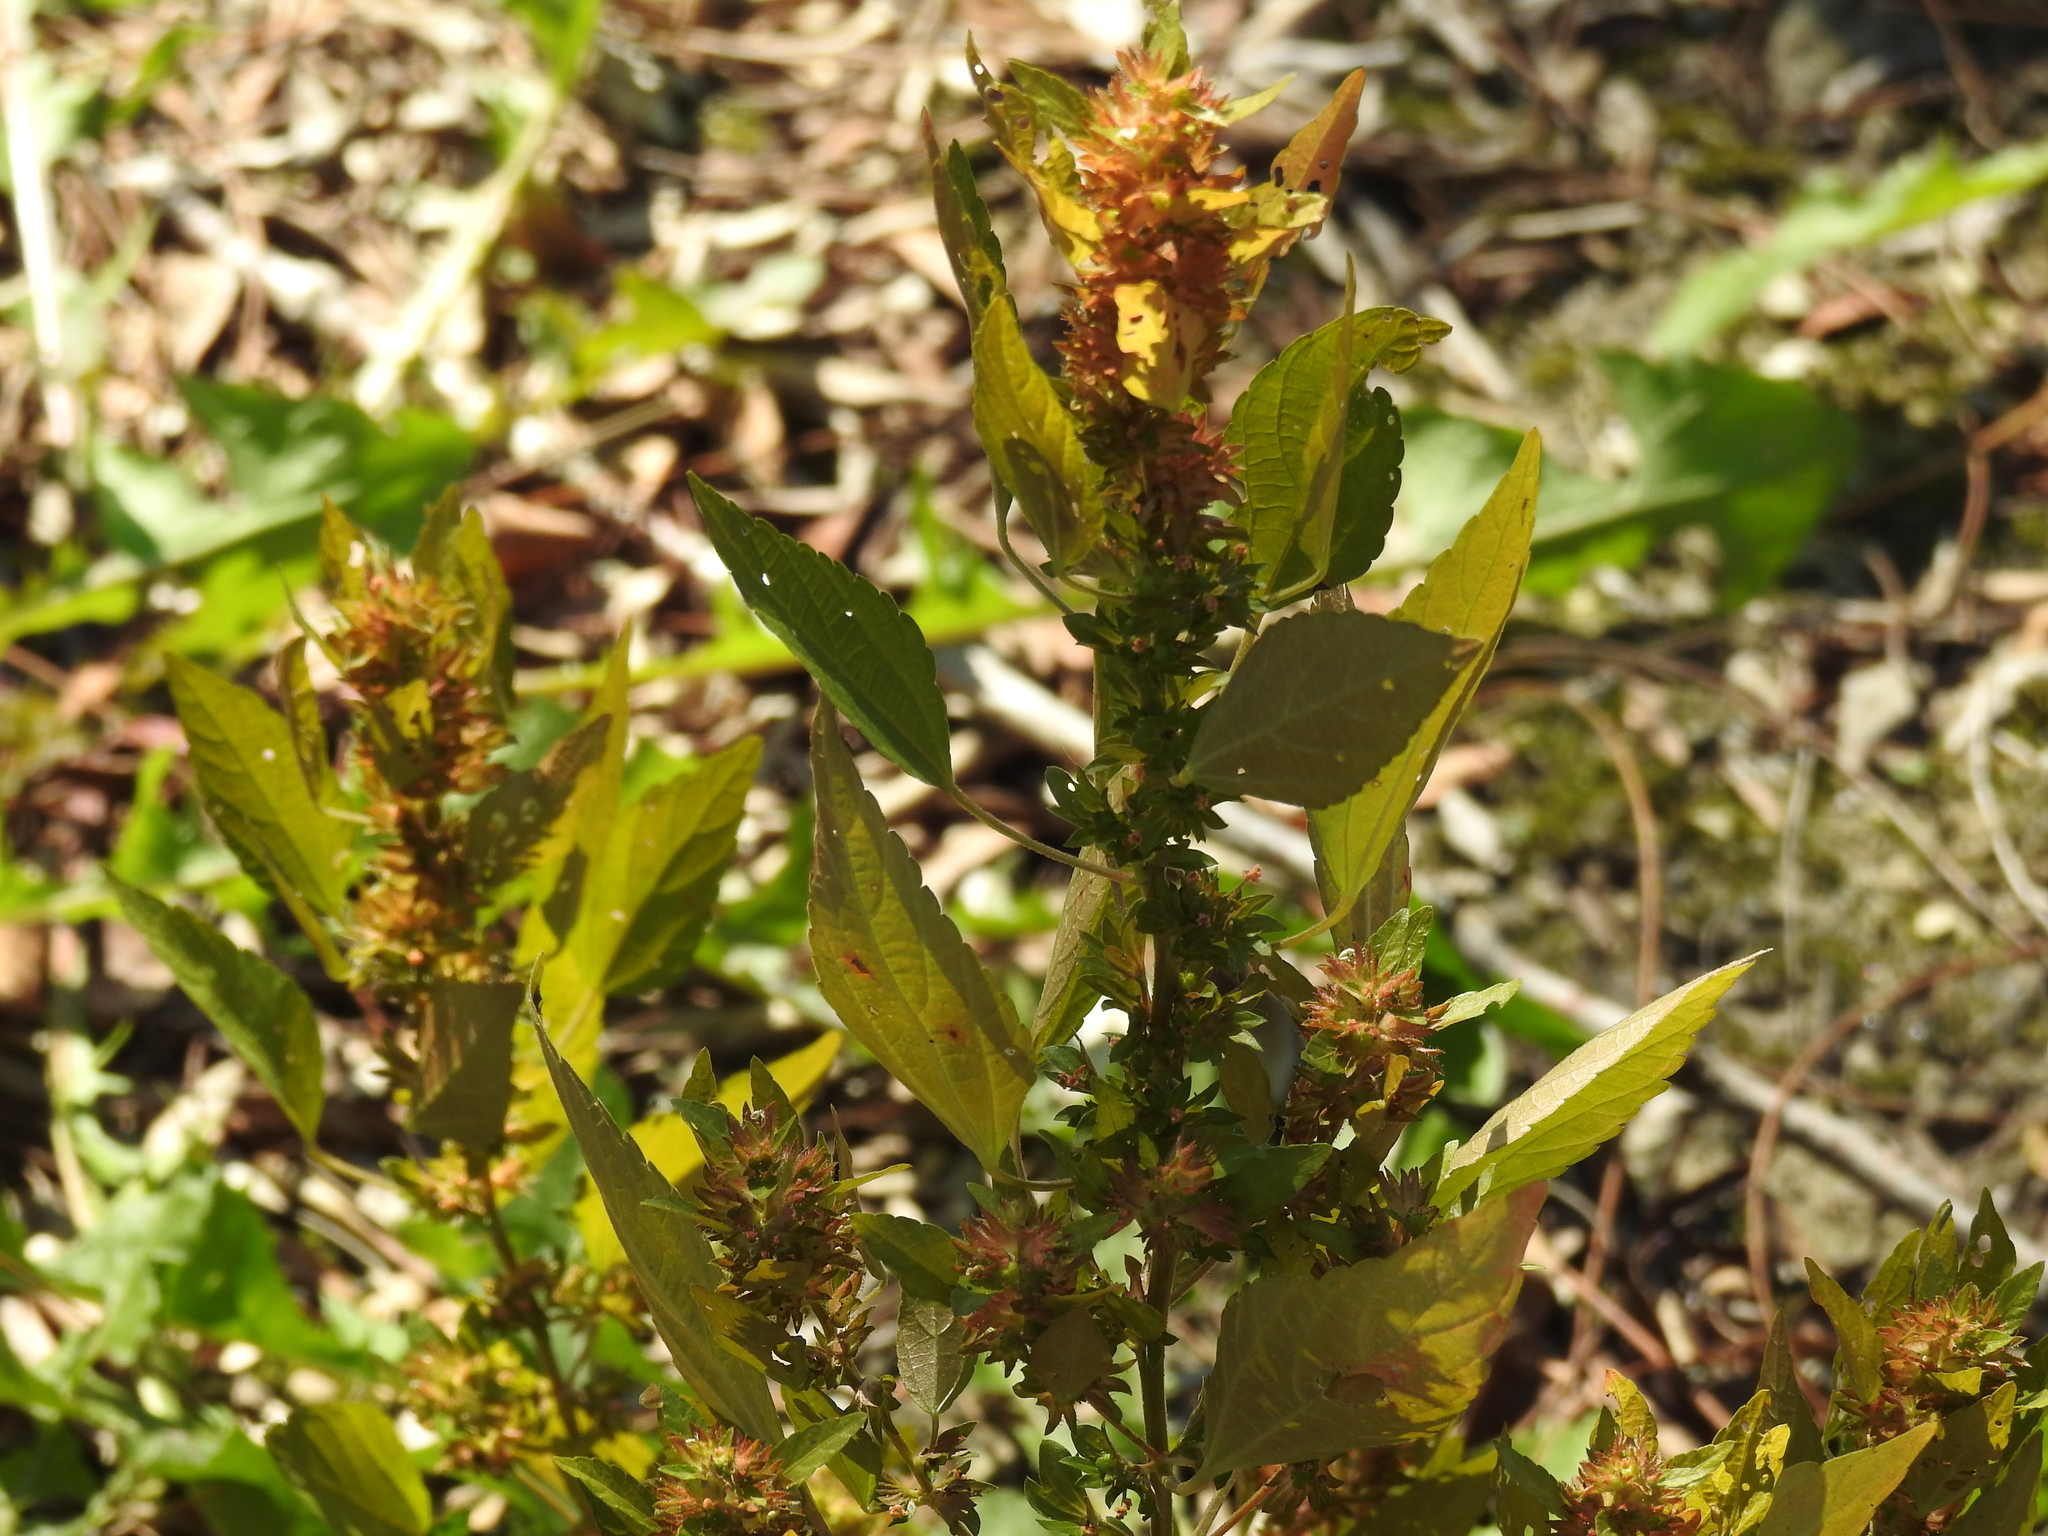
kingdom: Plantae
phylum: Tracheophyta
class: Magnoliopsida
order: Malpighiales
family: Euphorbiaceae
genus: Acalypha
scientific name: Acalypha rhomboidea
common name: Rhombic copperleaf
